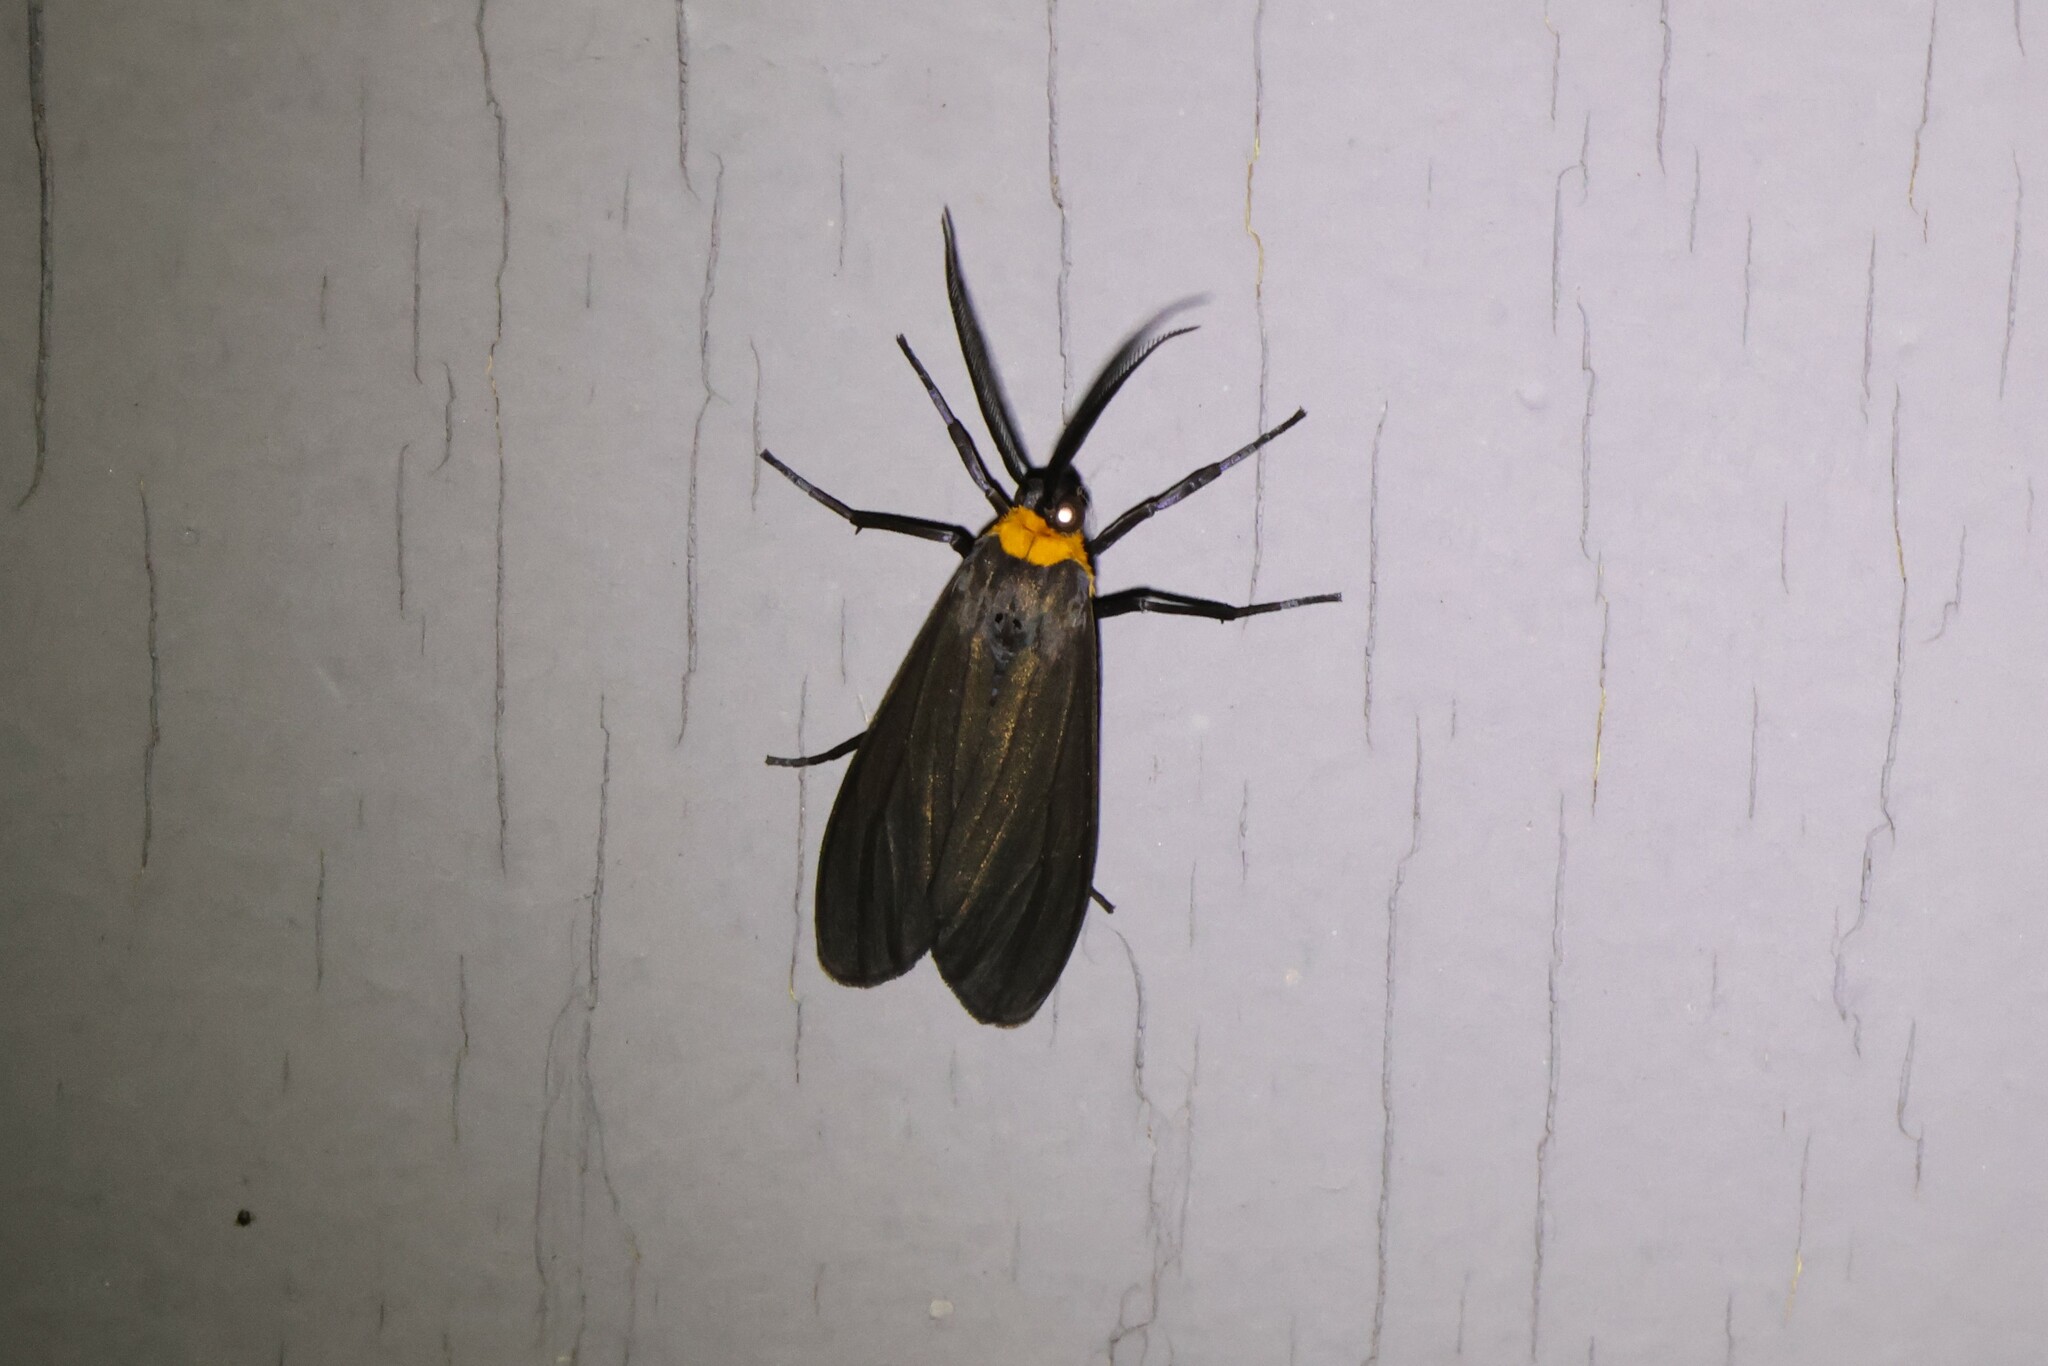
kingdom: Animalia
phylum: Arthropoda
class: Insecta
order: Lepidoptera
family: Erebidae
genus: Cisseps
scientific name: Cisseps fulvicollis
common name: Yellow-collared scape moth
